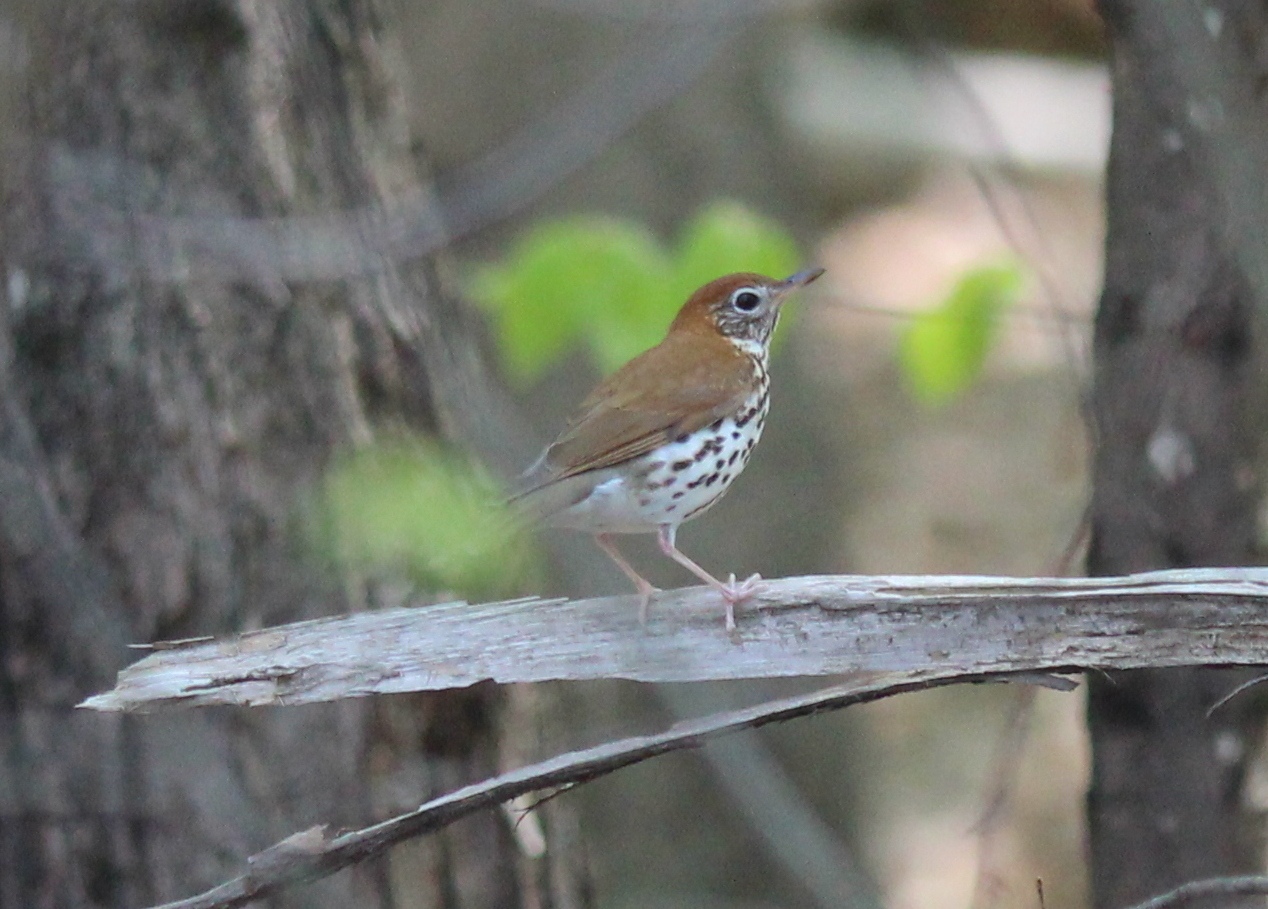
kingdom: Animalia
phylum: Chordata
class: Aves
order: Passeriformes
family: Turdidae
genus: Hylocichla
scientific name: Hylocichla mustelina
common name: Wood thrush
